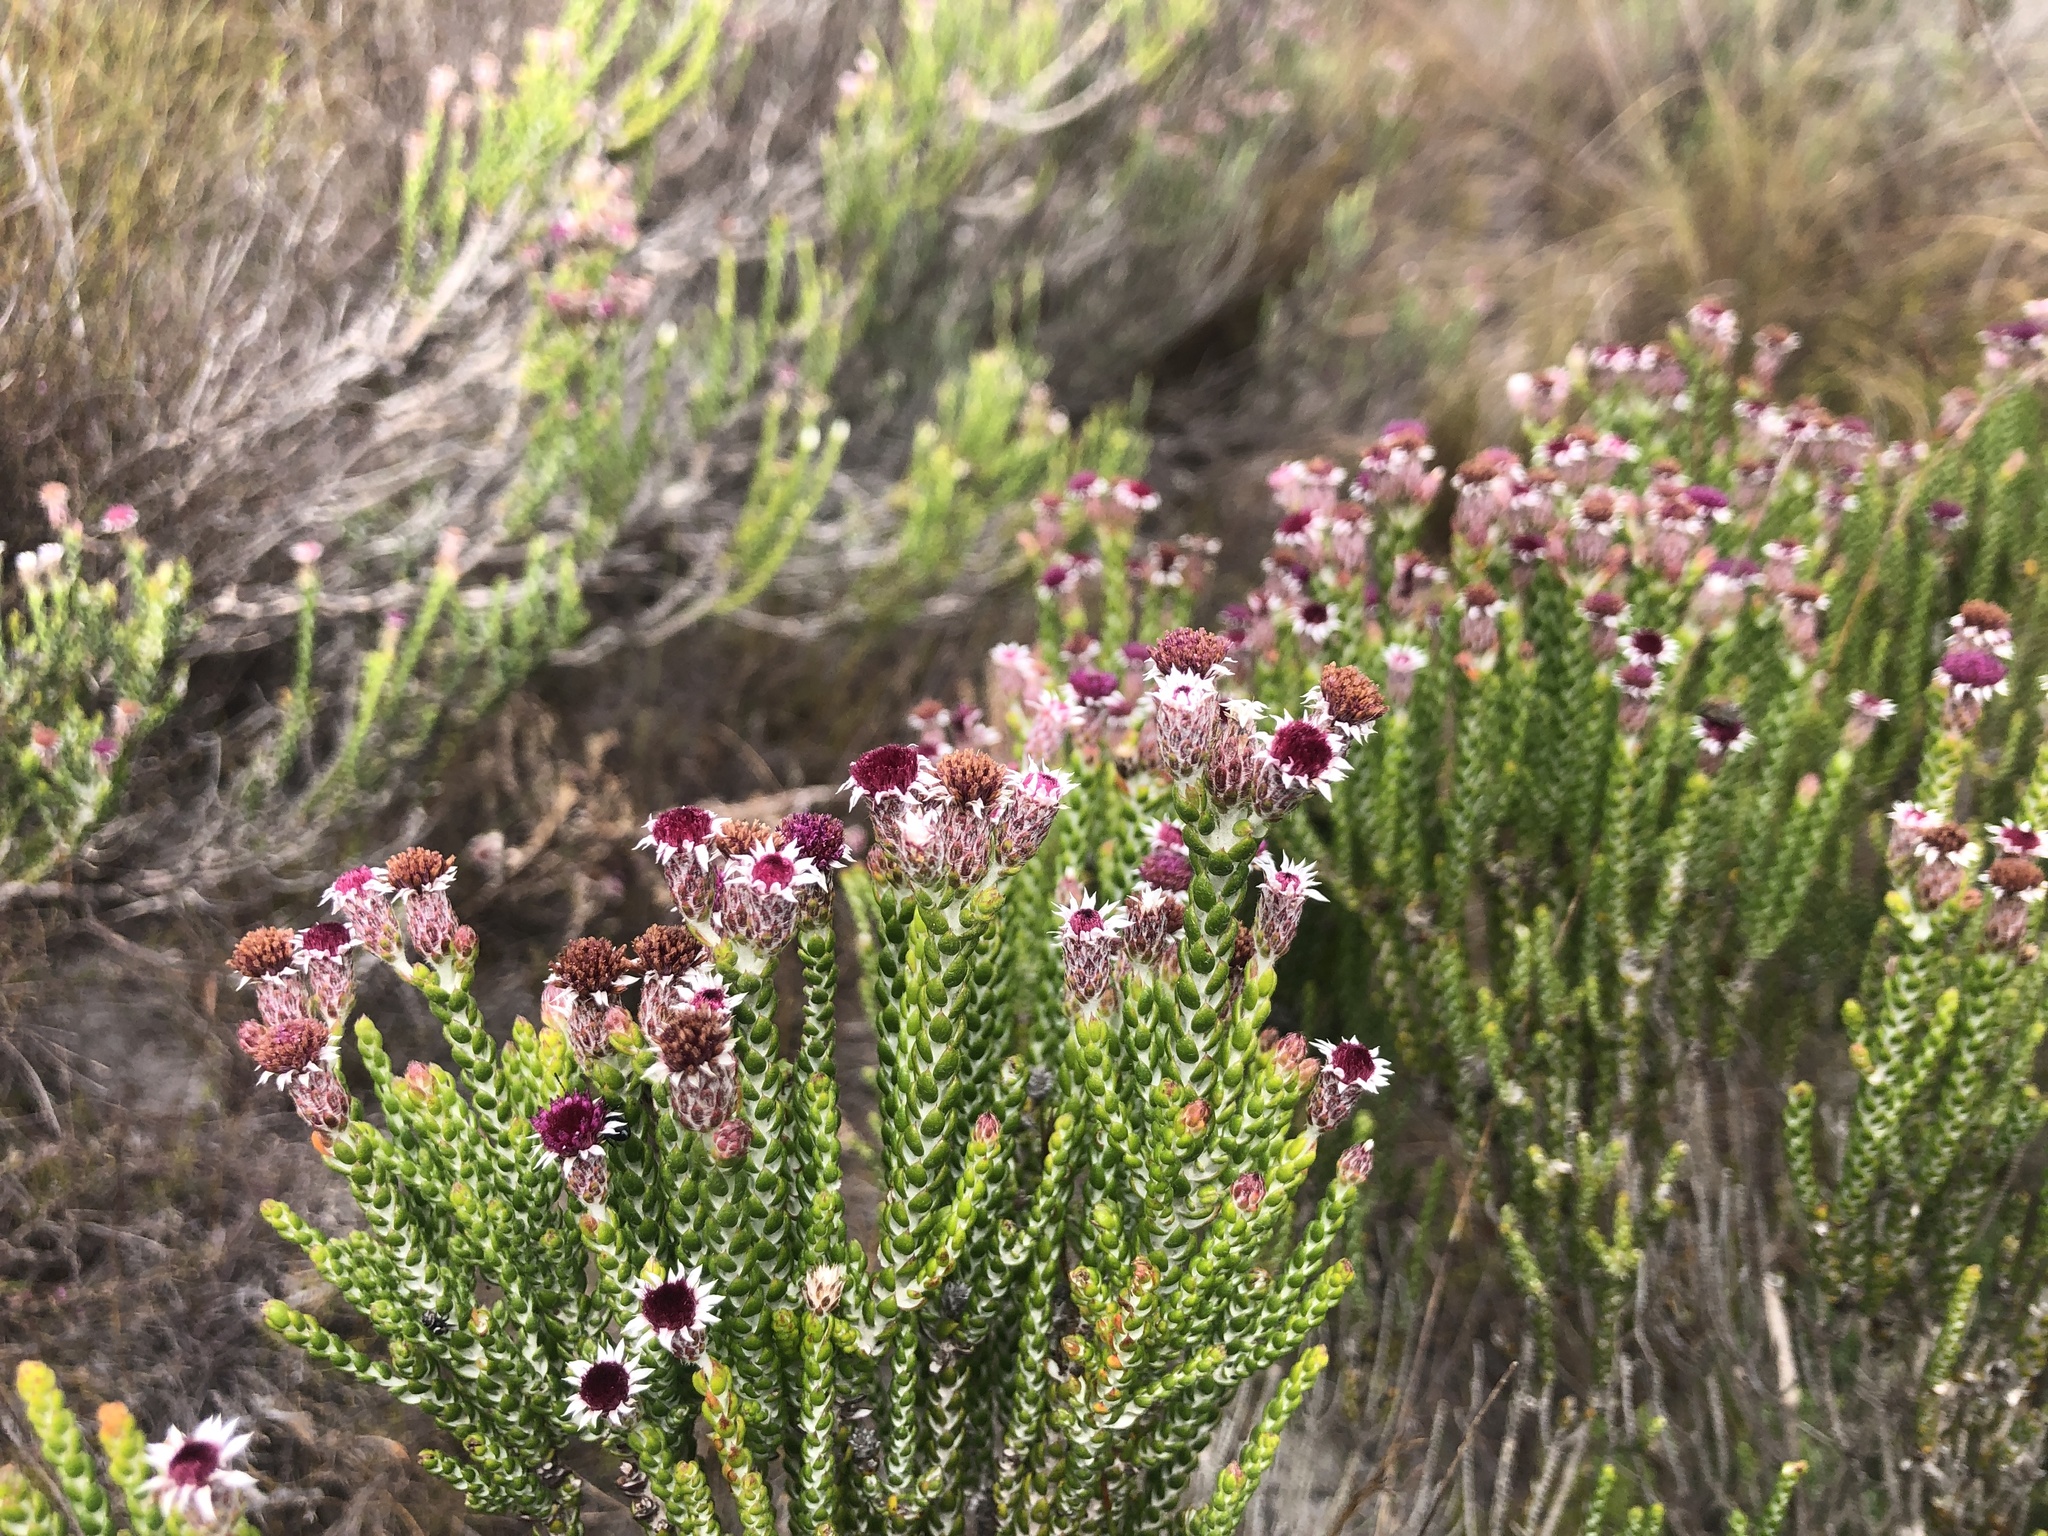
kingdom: Plantae
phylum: Tracheophyta
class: Magnoliopsida
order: Asterales
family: Asteraceae
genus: Lachnospermum
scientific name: Lachnospermum imbricatum
